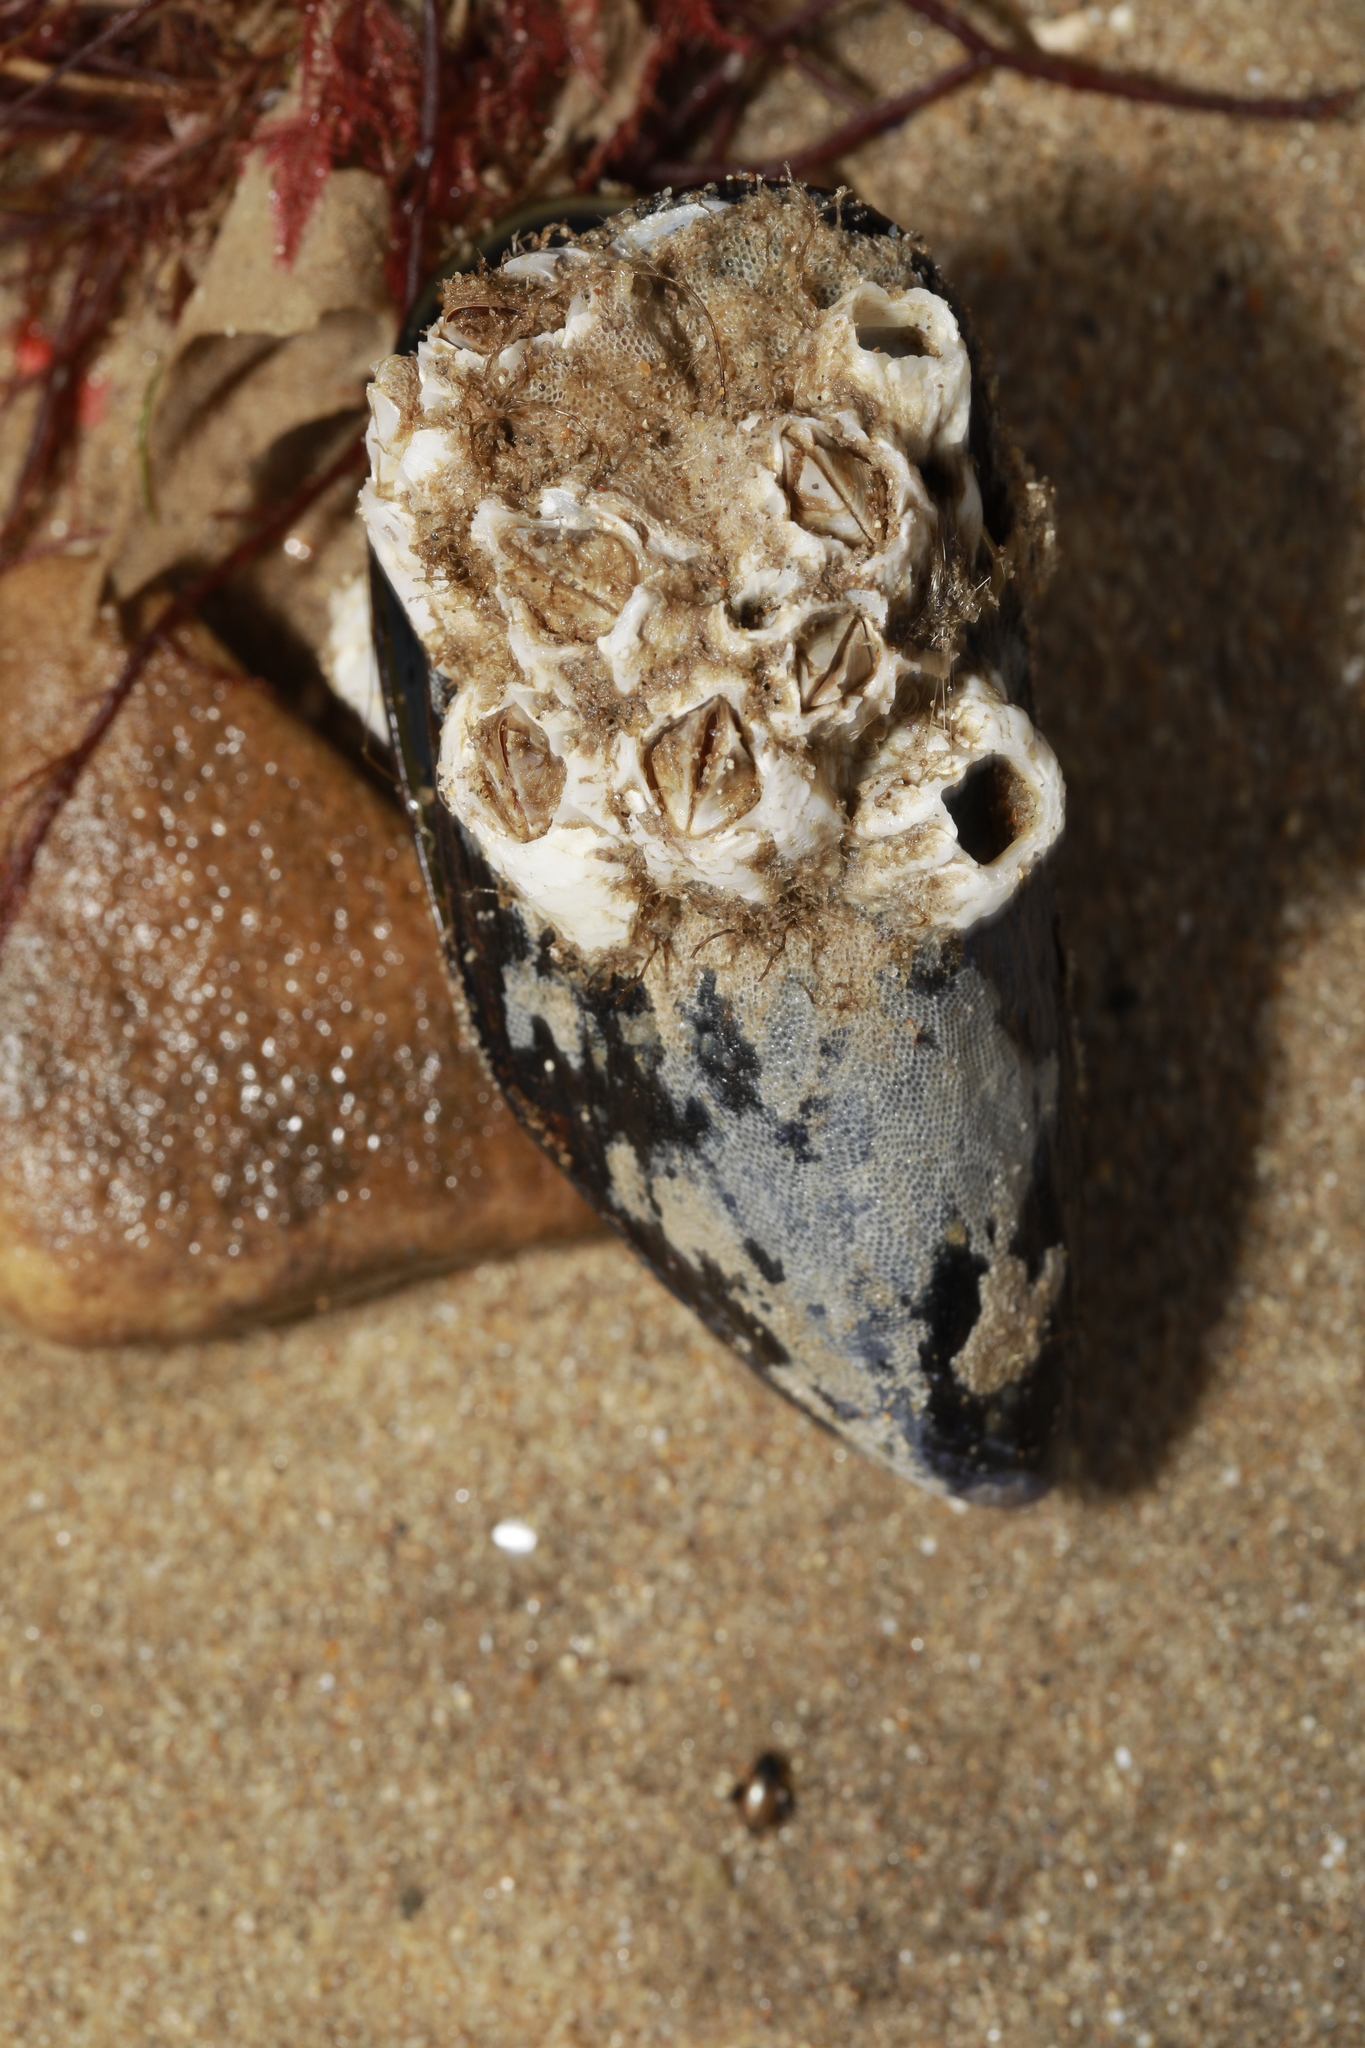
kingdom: Animalia
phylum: Mollusca
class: Bivalvia
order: Mytilida
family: Mytilidae
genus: Mytilus
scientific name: Mytilus edulis
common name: Blue mussel
